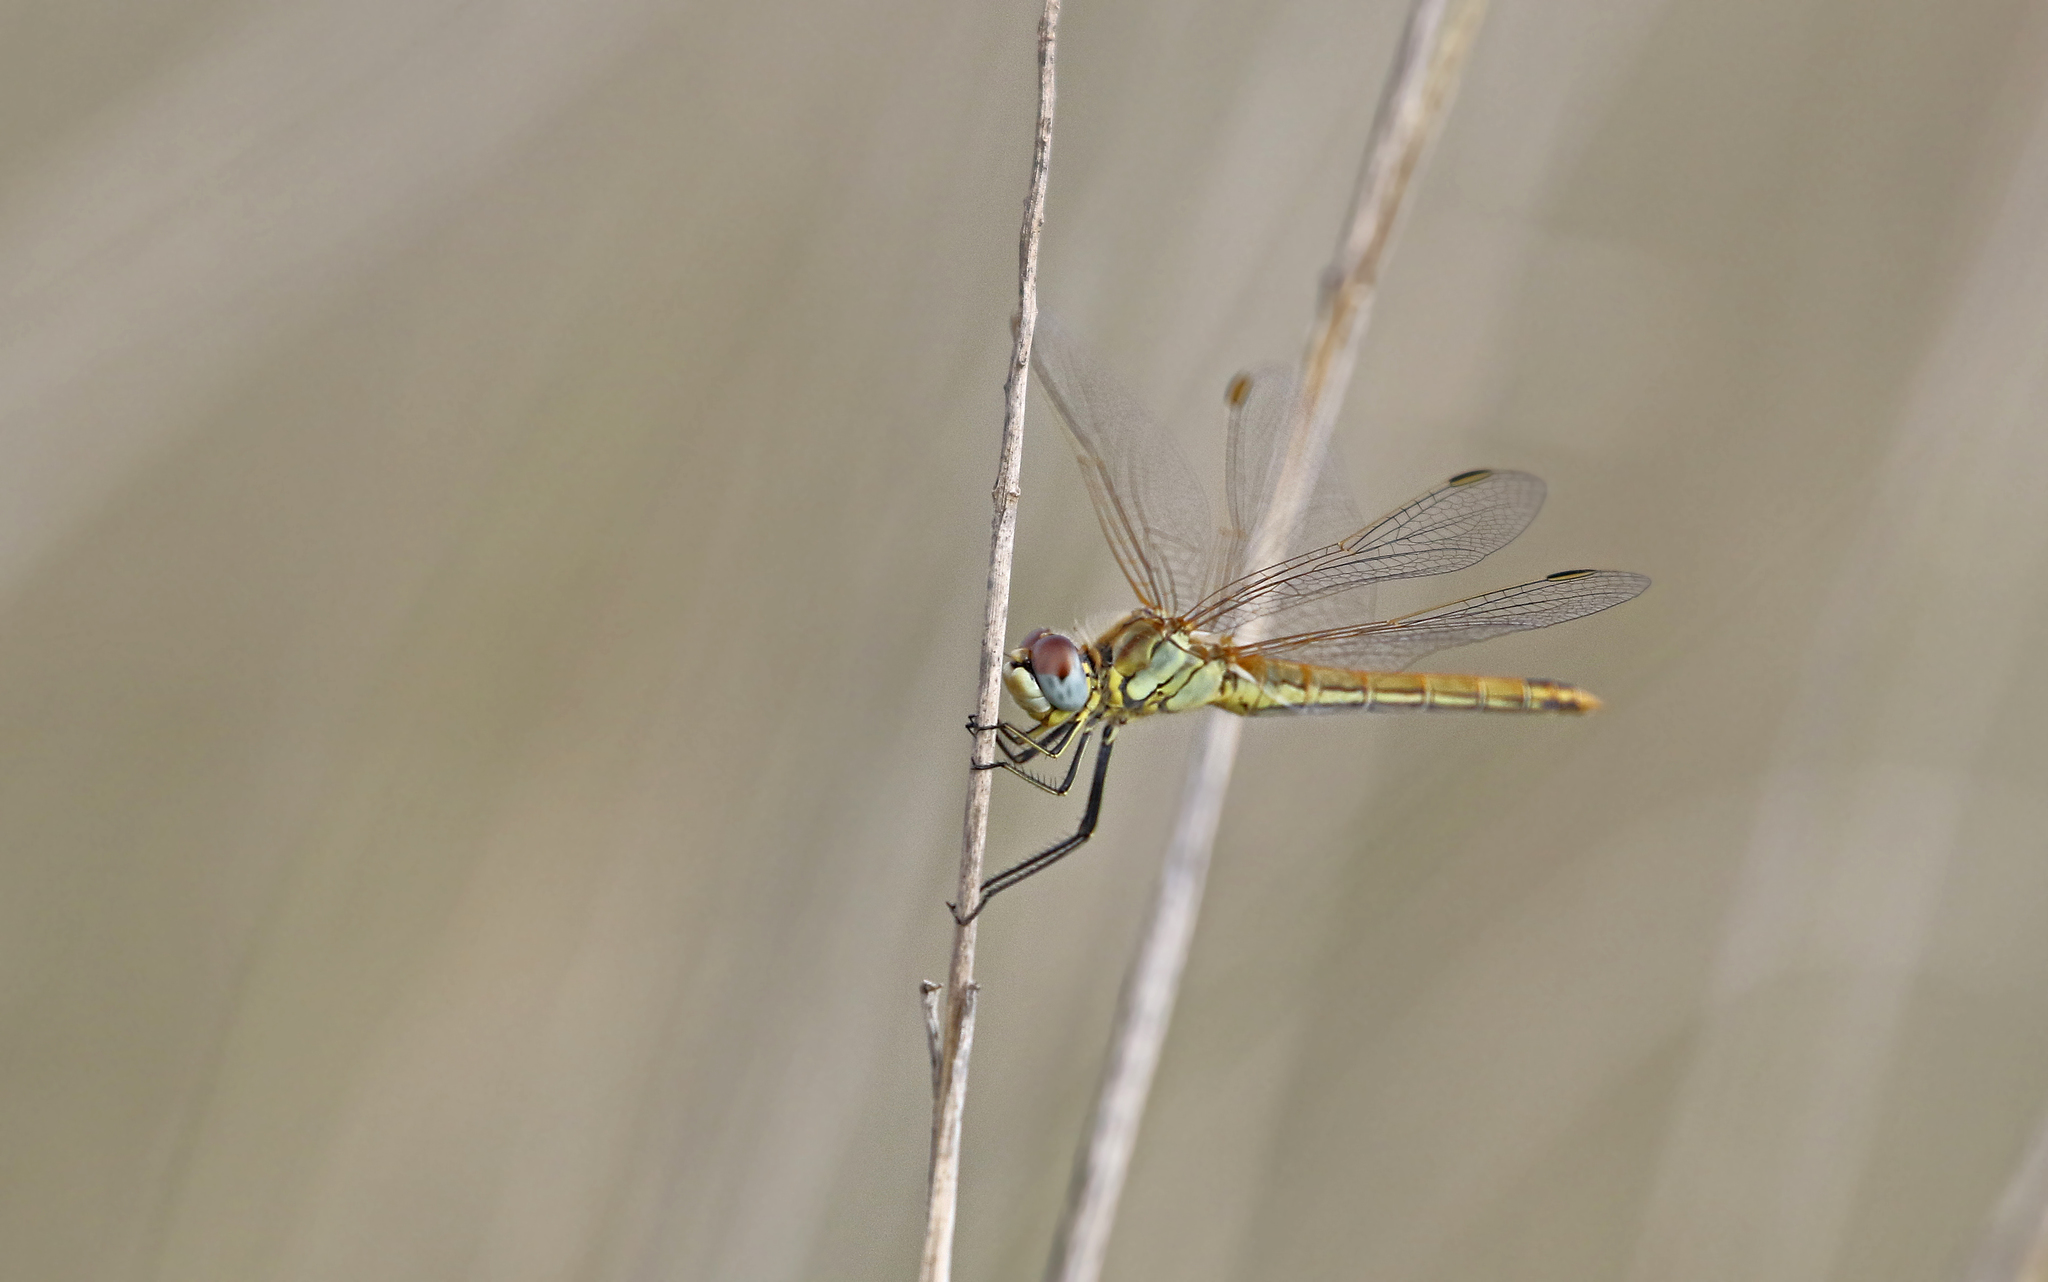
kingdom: Animalia
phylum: Arthropoda
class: Insecta
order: Odonata
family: Libellulidae
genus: Sympetrum
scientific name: Sympetrum fonscolombii
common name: Red-veined darter
